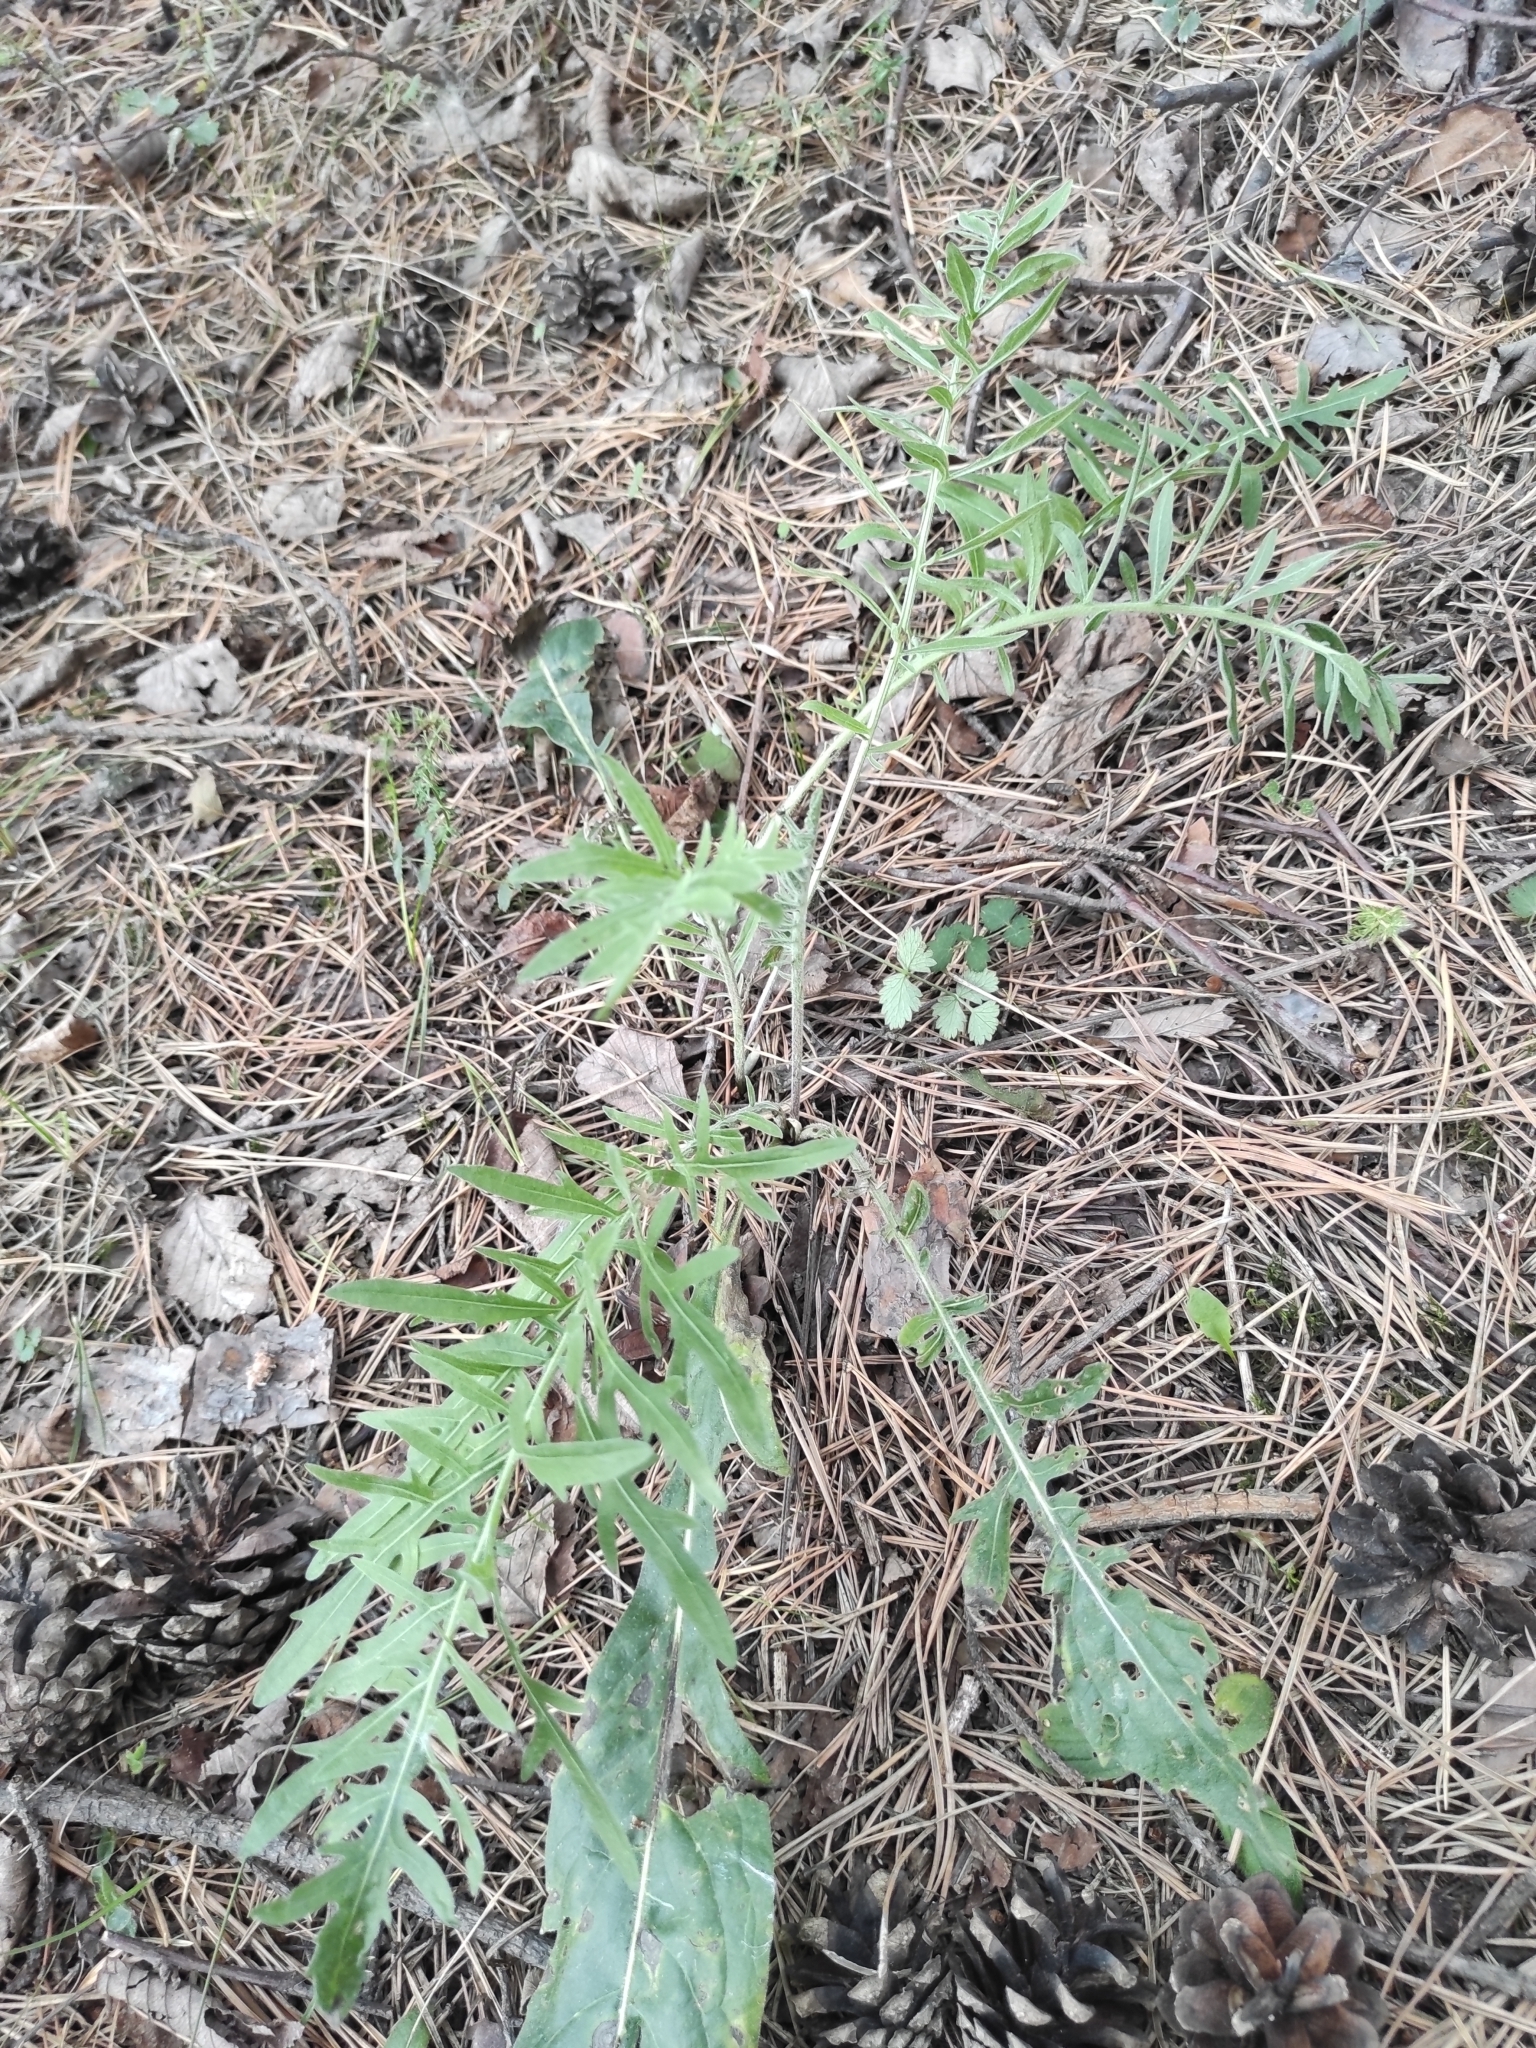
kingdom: Plantae
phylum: Tracheophyta
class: Magnoliopsida
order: Asterales
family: Asteraceae
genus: Centaurea
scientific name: Centaurea scabiosa
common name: Greater knapweed
